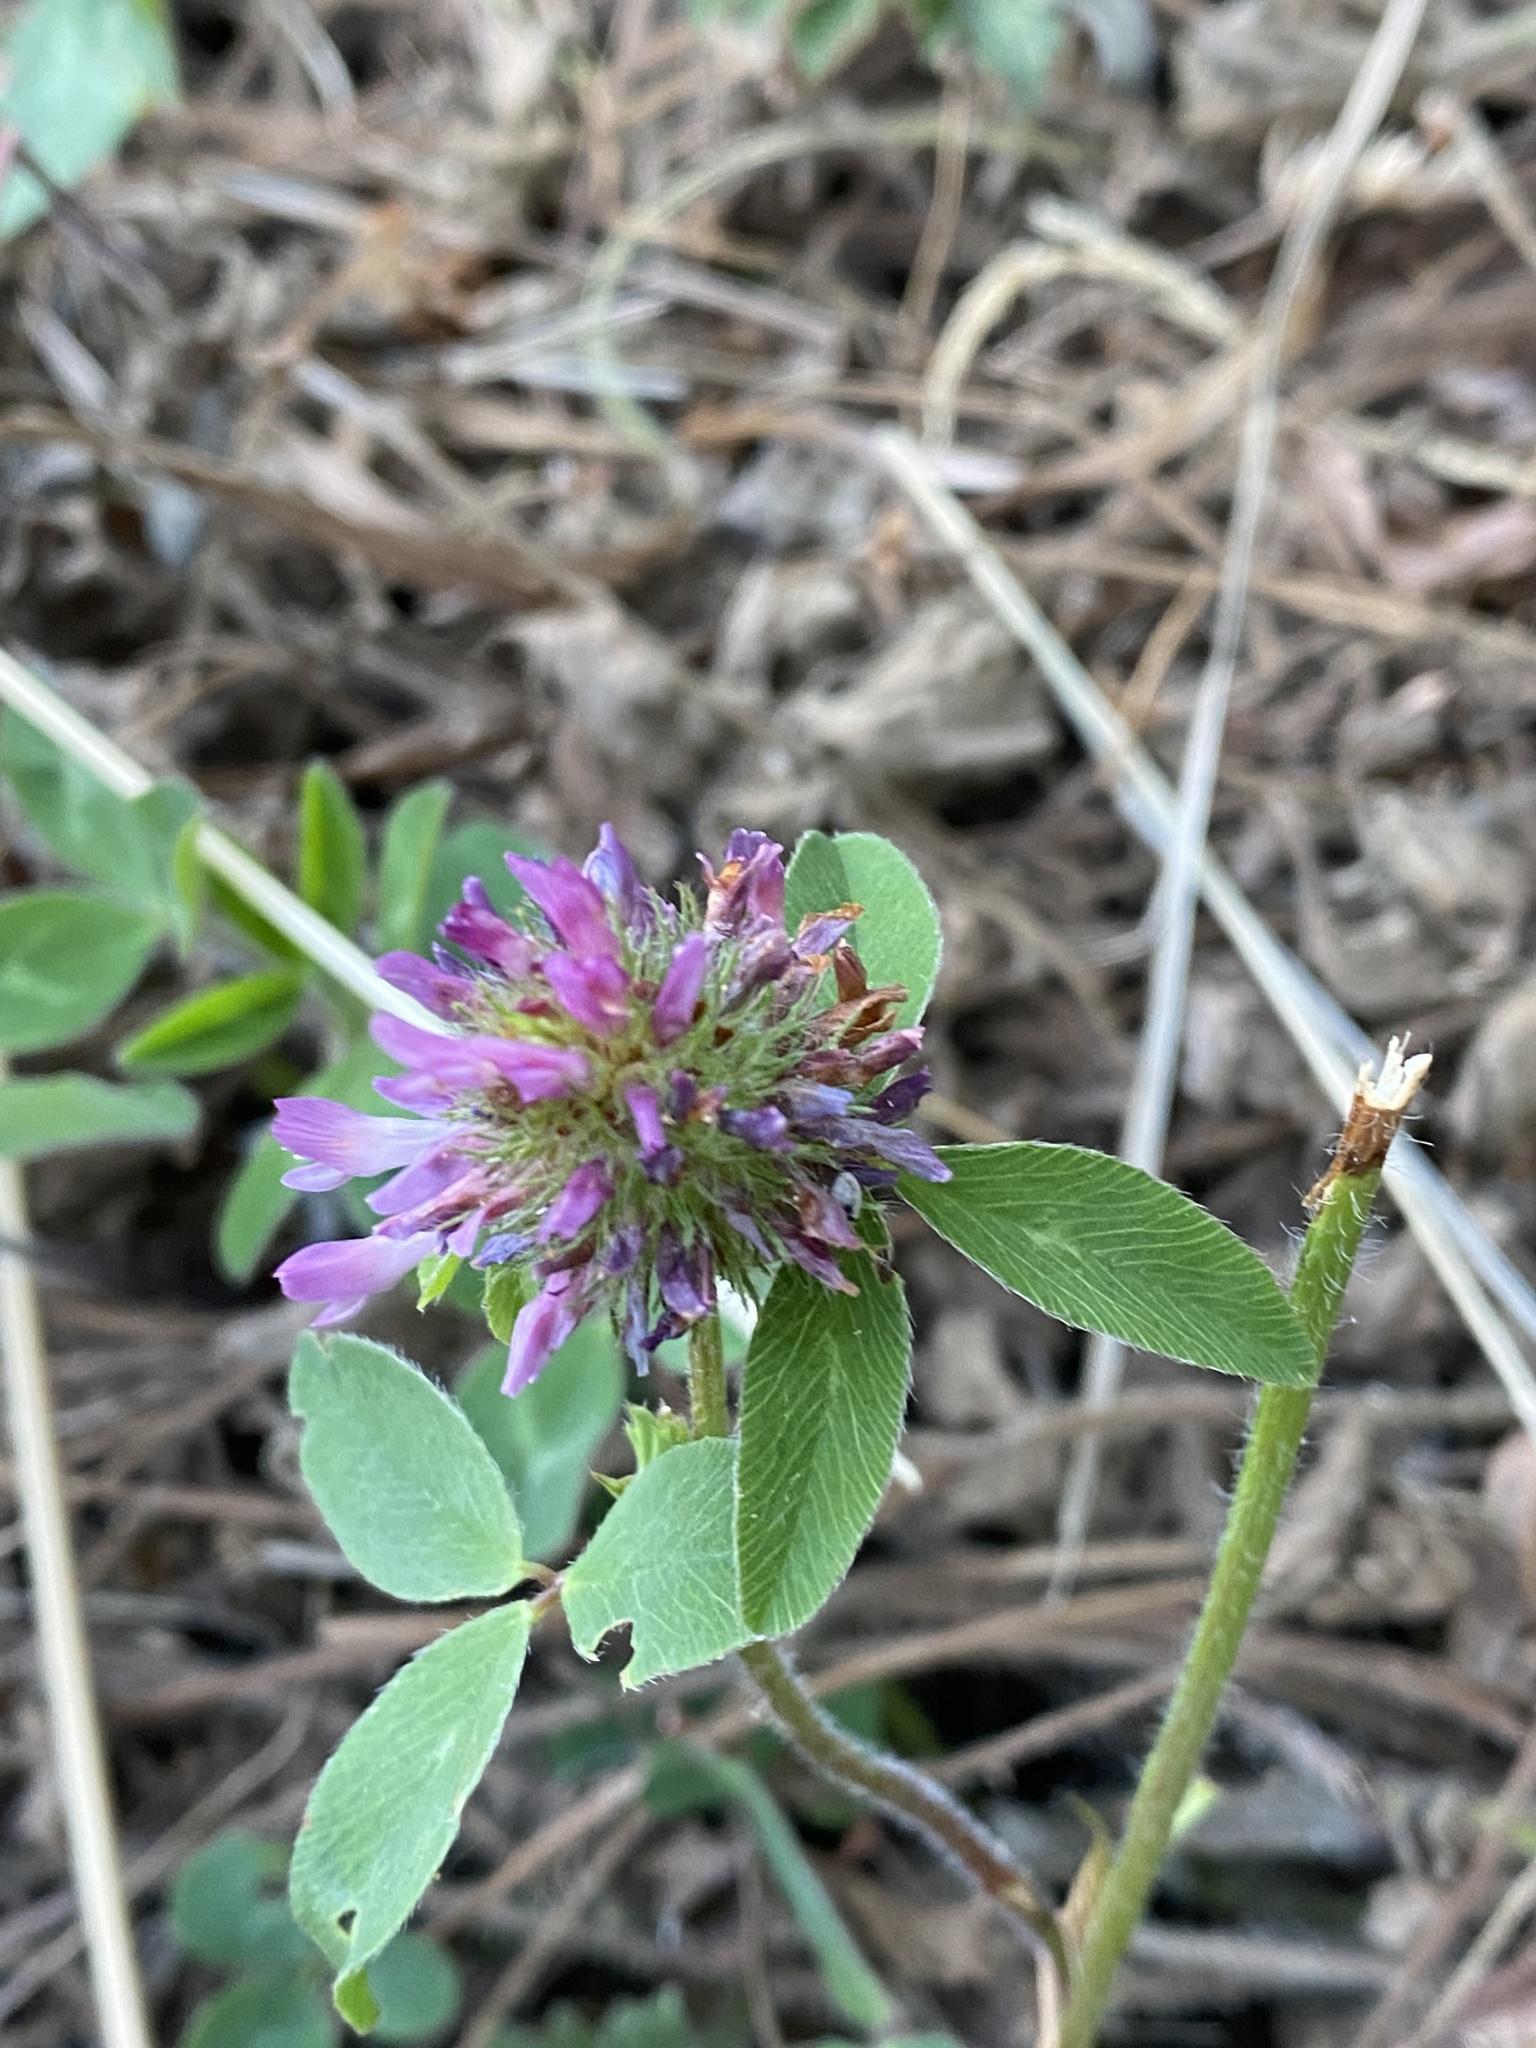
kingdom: Plantae
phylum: Tracheophyta
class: Magnoliopsida
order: Fabales
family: Fabaceae
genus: Trifolium
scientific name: Trifolium pratense
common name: Red clover
